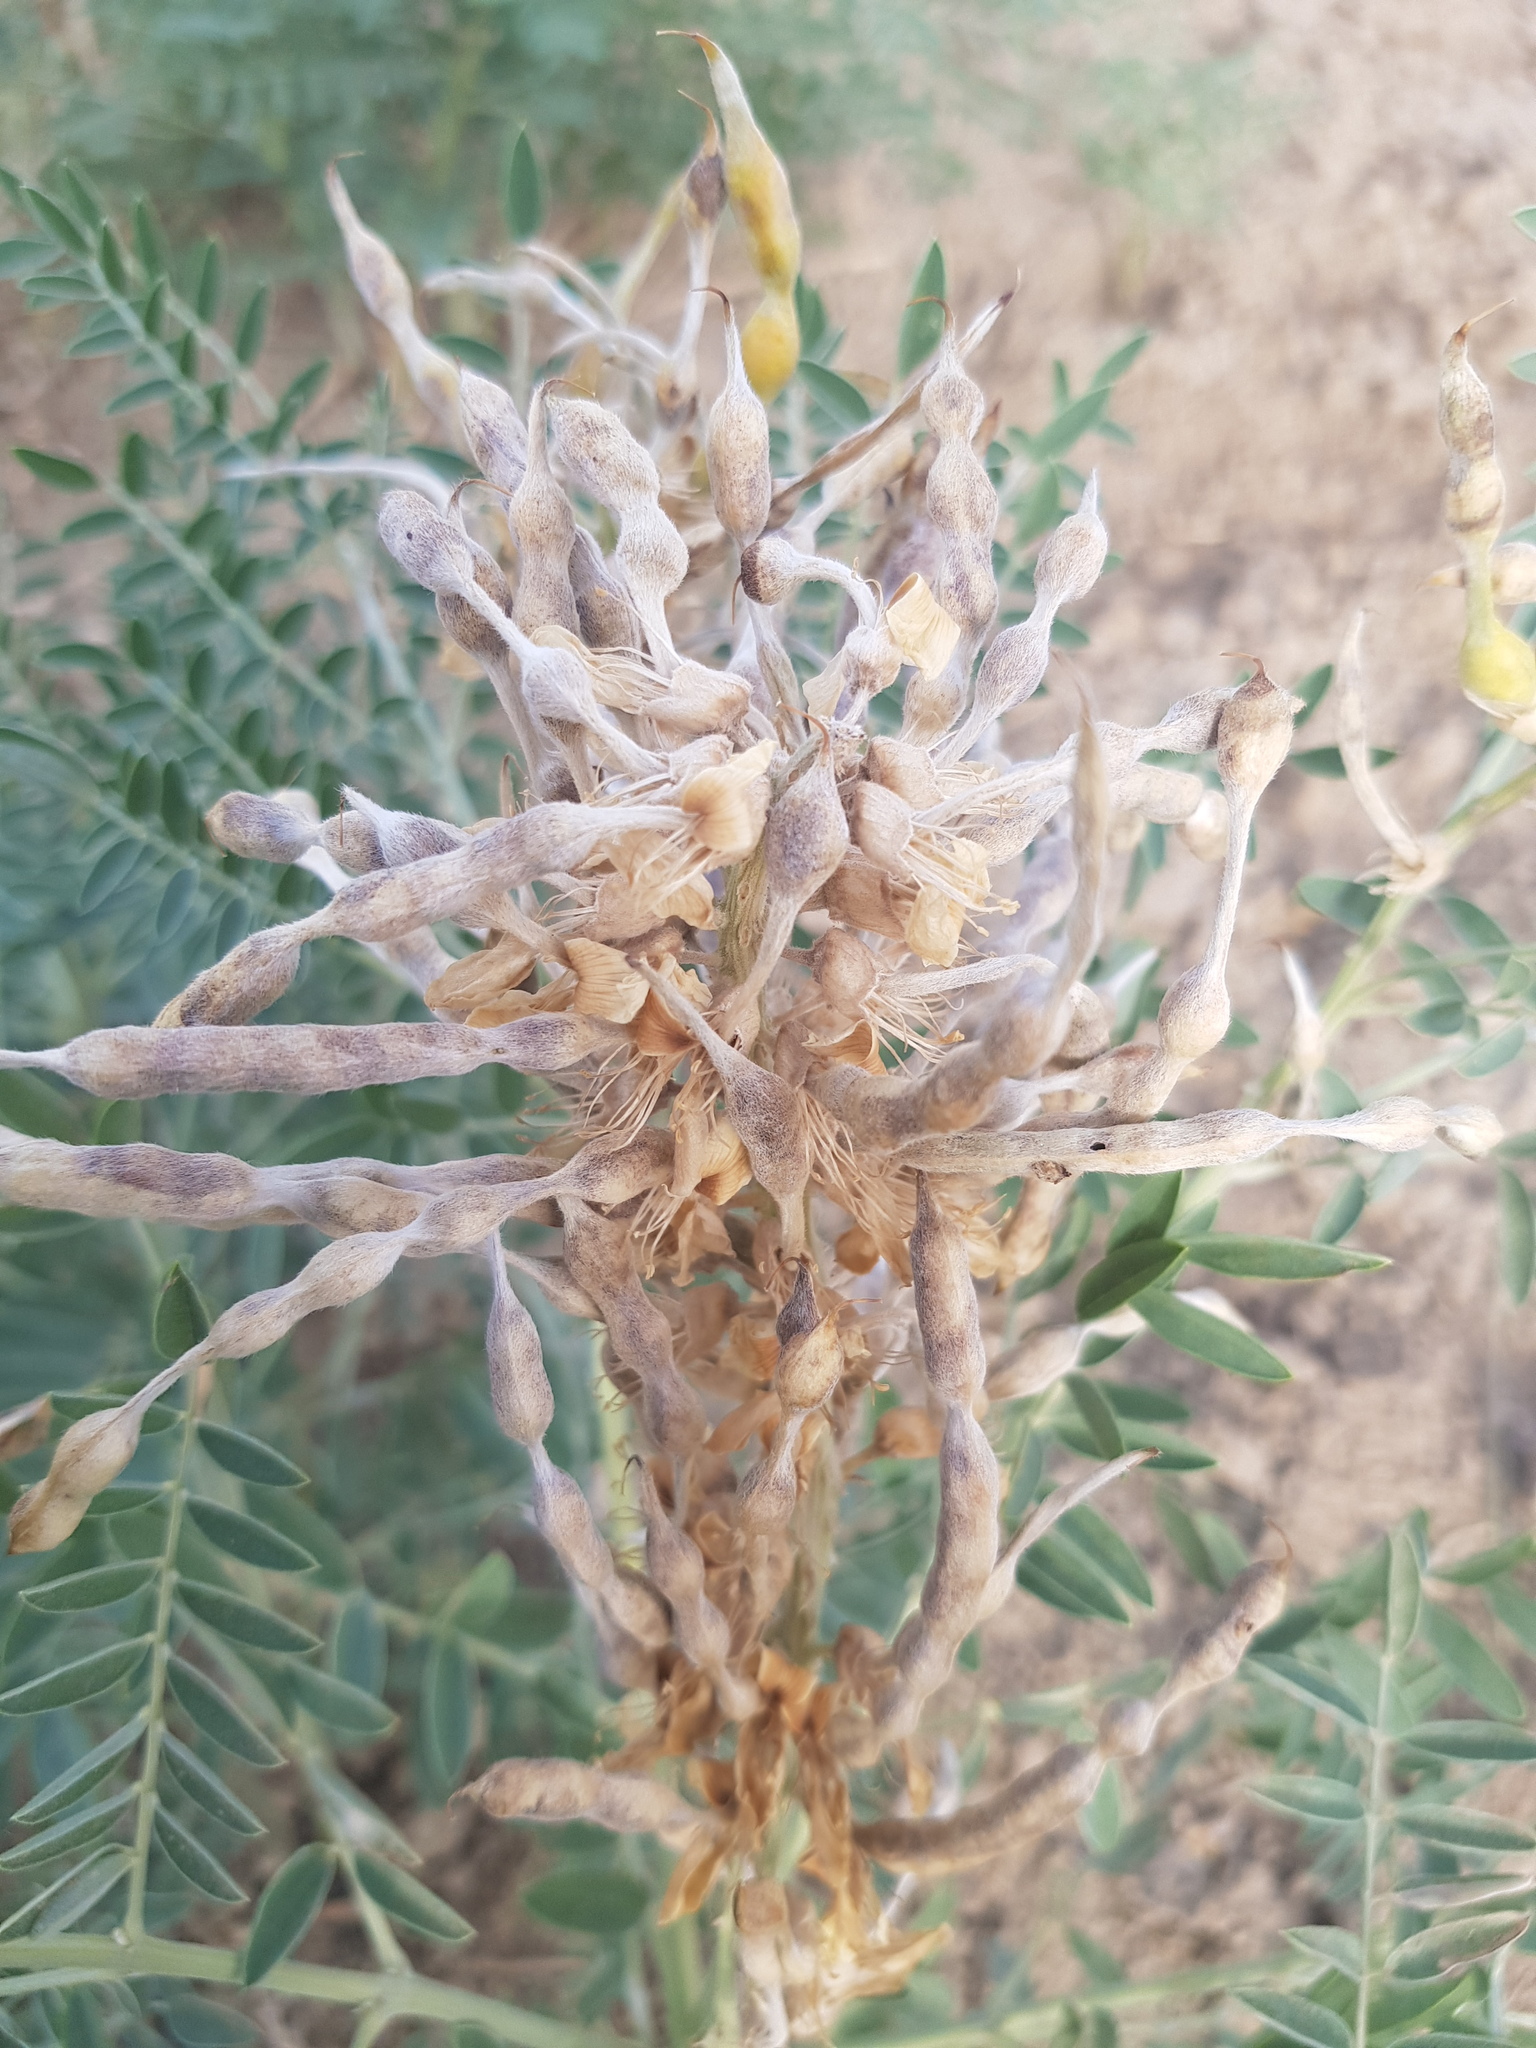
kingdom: Plantae
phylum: Tracheophyta
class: Magnoliopsida
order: Fabales
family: Fabaceae
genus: Sophora
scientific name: Sophora alopecuroides
